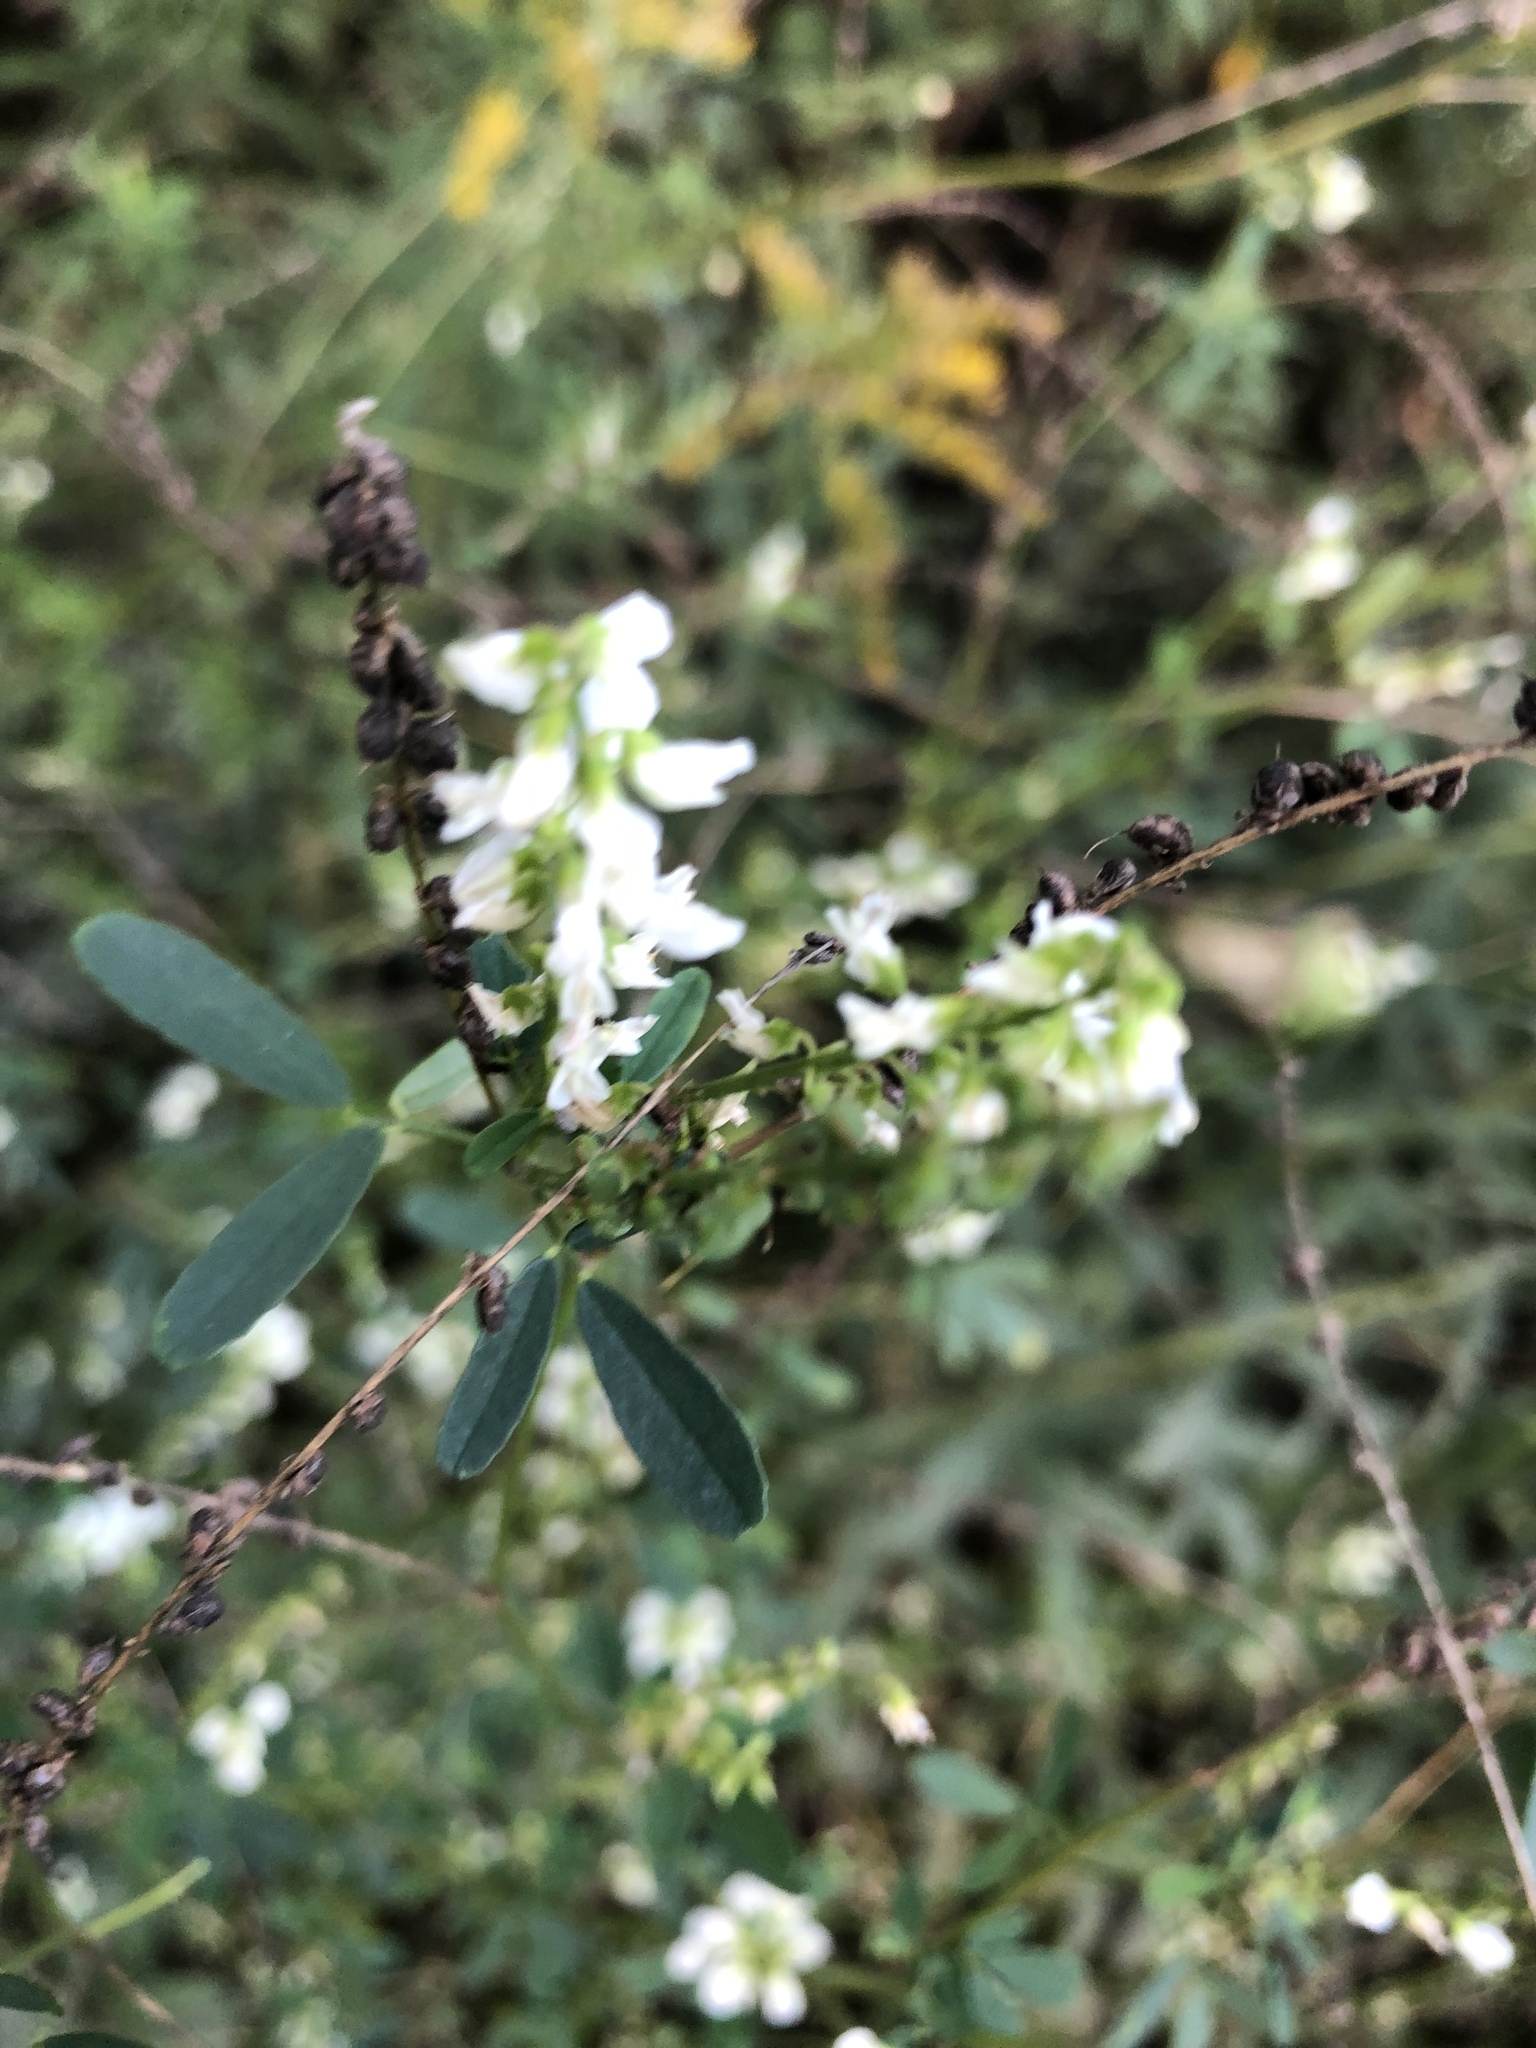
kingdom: Plantae
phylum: Tracheophyta
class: Magnoliopsida
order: Fabales
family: Fabaceae
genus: Melilotus
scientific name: Melilotus albus
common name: White melilot
